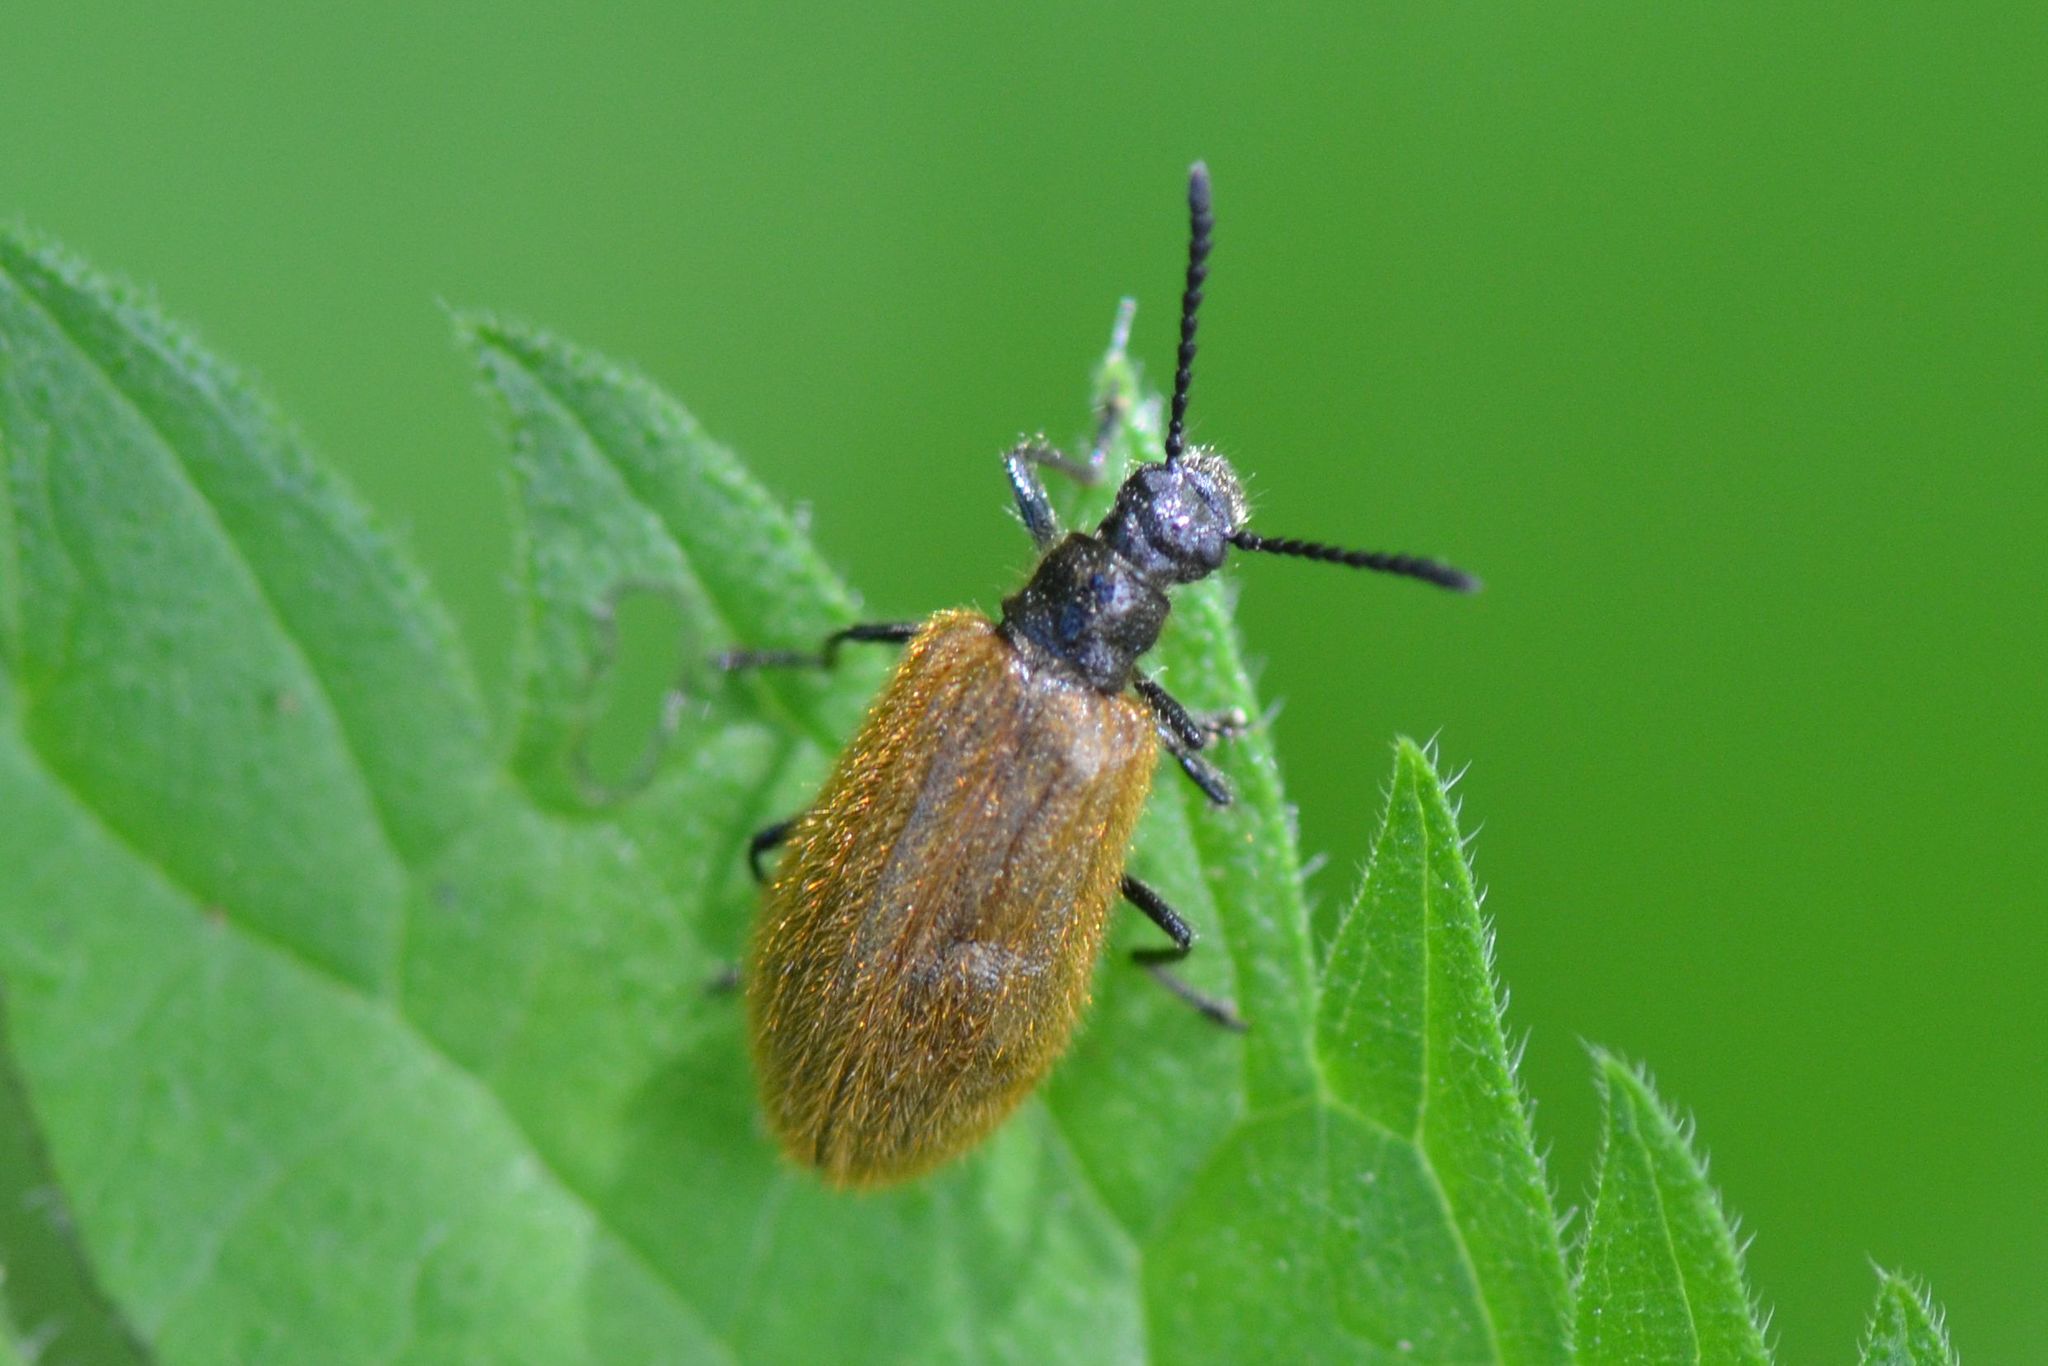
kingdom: Animalia
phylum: Arthropoda
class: Insecta
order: Coleoptera
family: Tenebrionidae
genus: Lagria
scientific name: Lagria hirta
